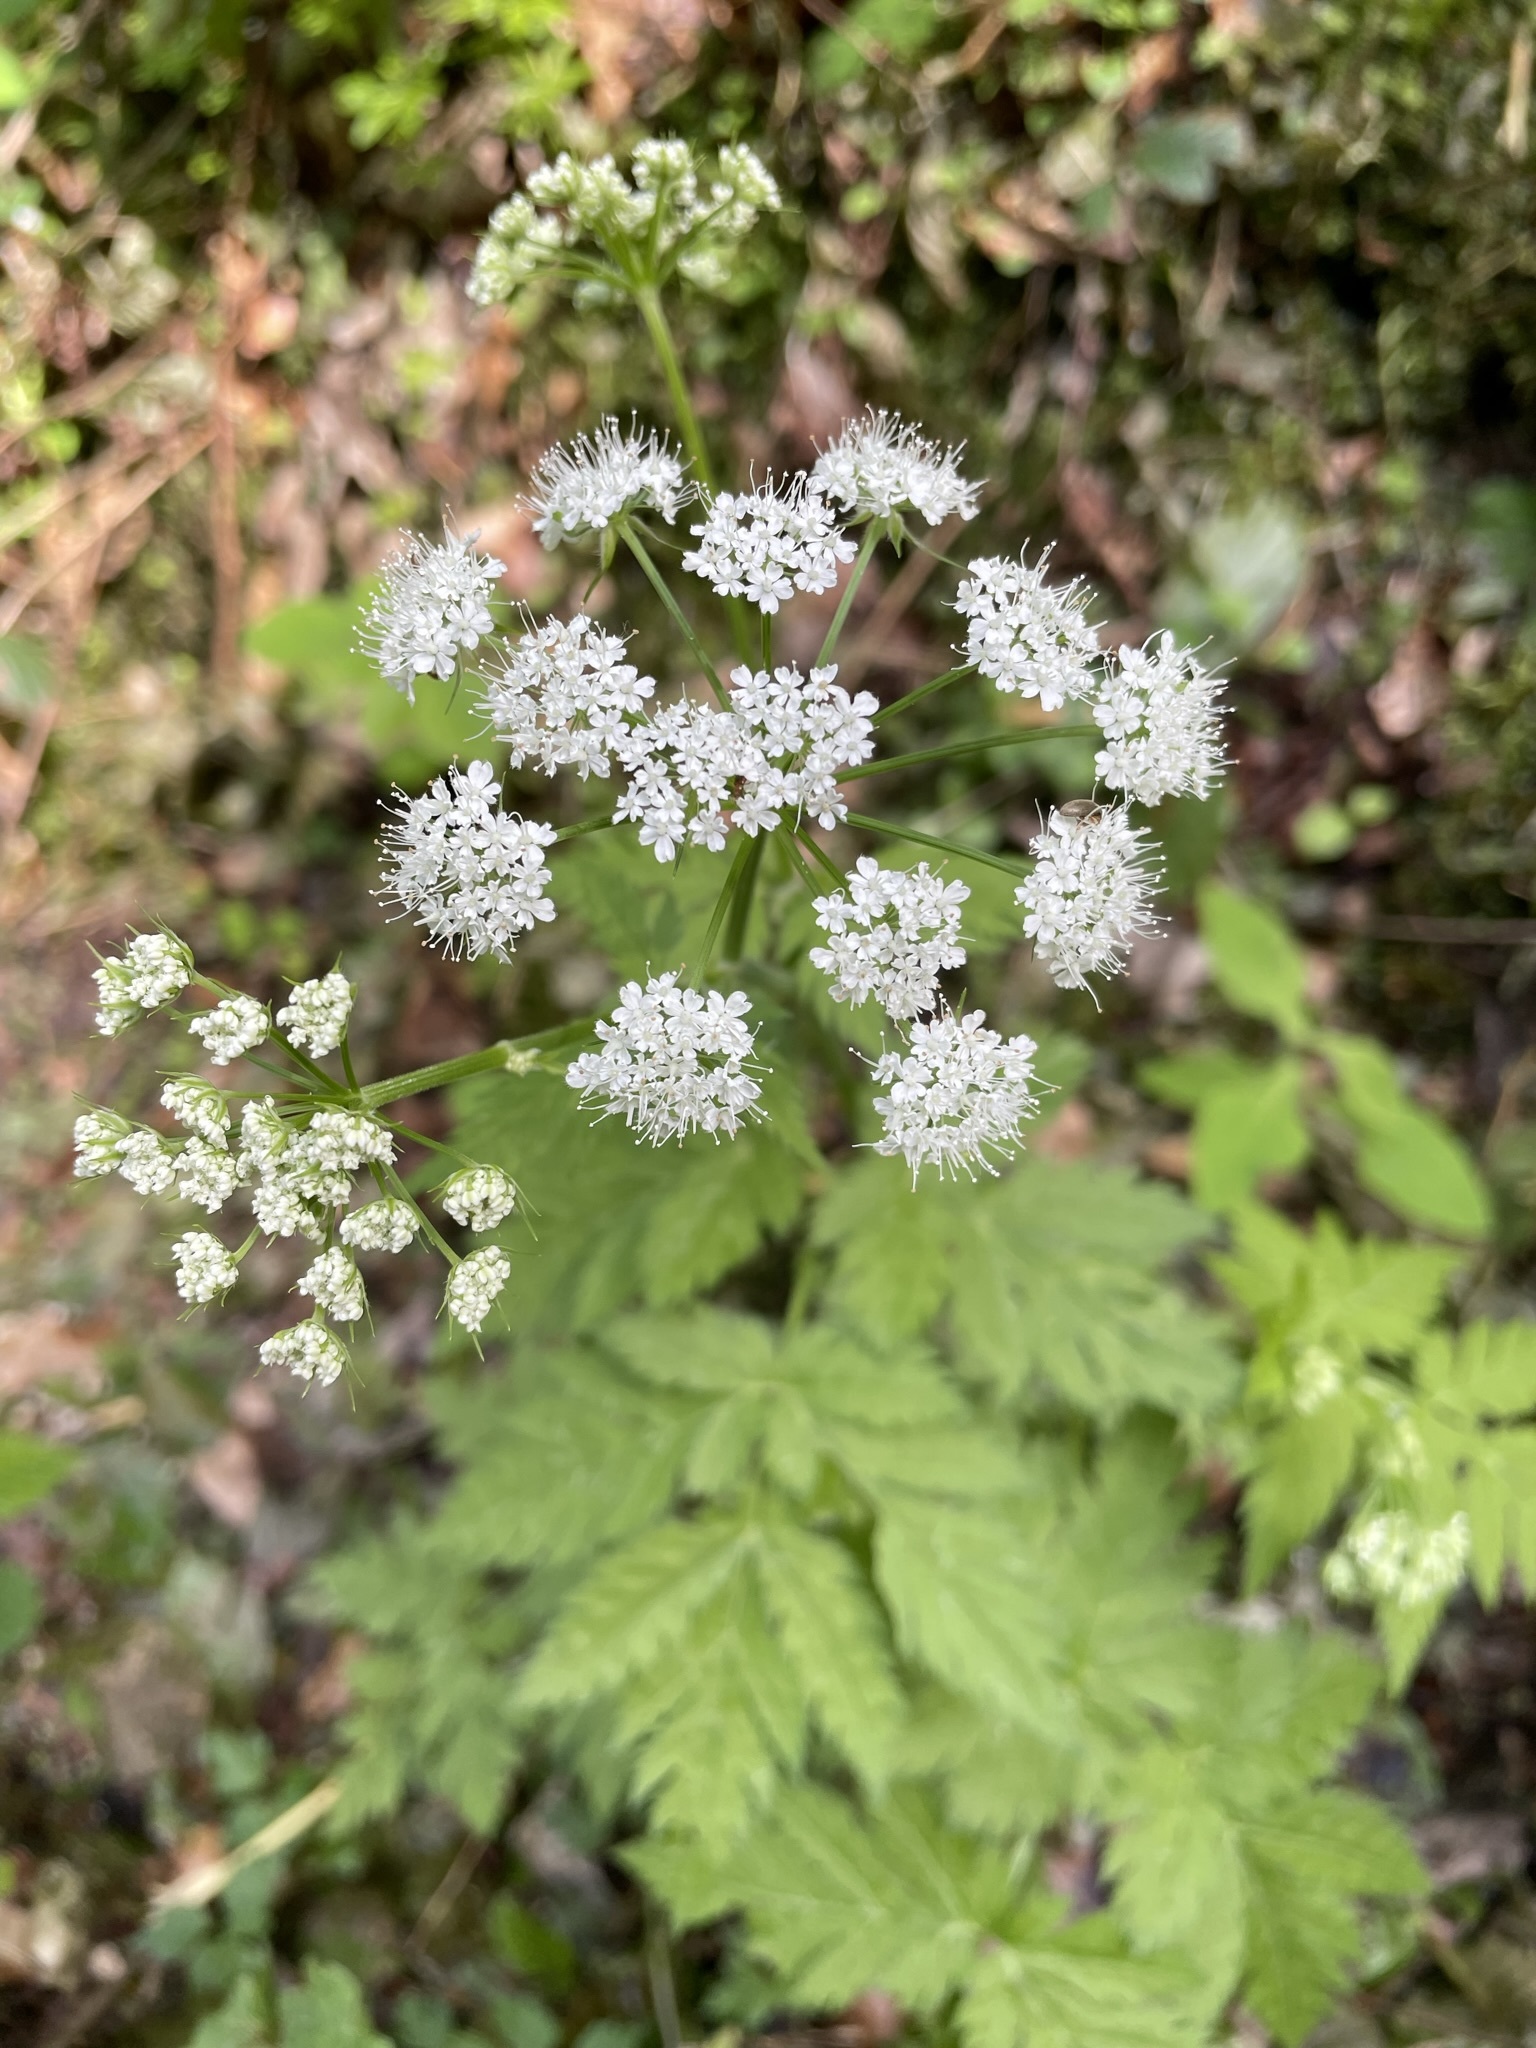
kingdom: Plantae
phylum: Tracheophyta
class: Magnoliopsida
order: Apiales
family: Apiaceae
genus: Chaerophyllum
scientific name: Chaerophyllum hirsutum
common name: Hairy chervil
